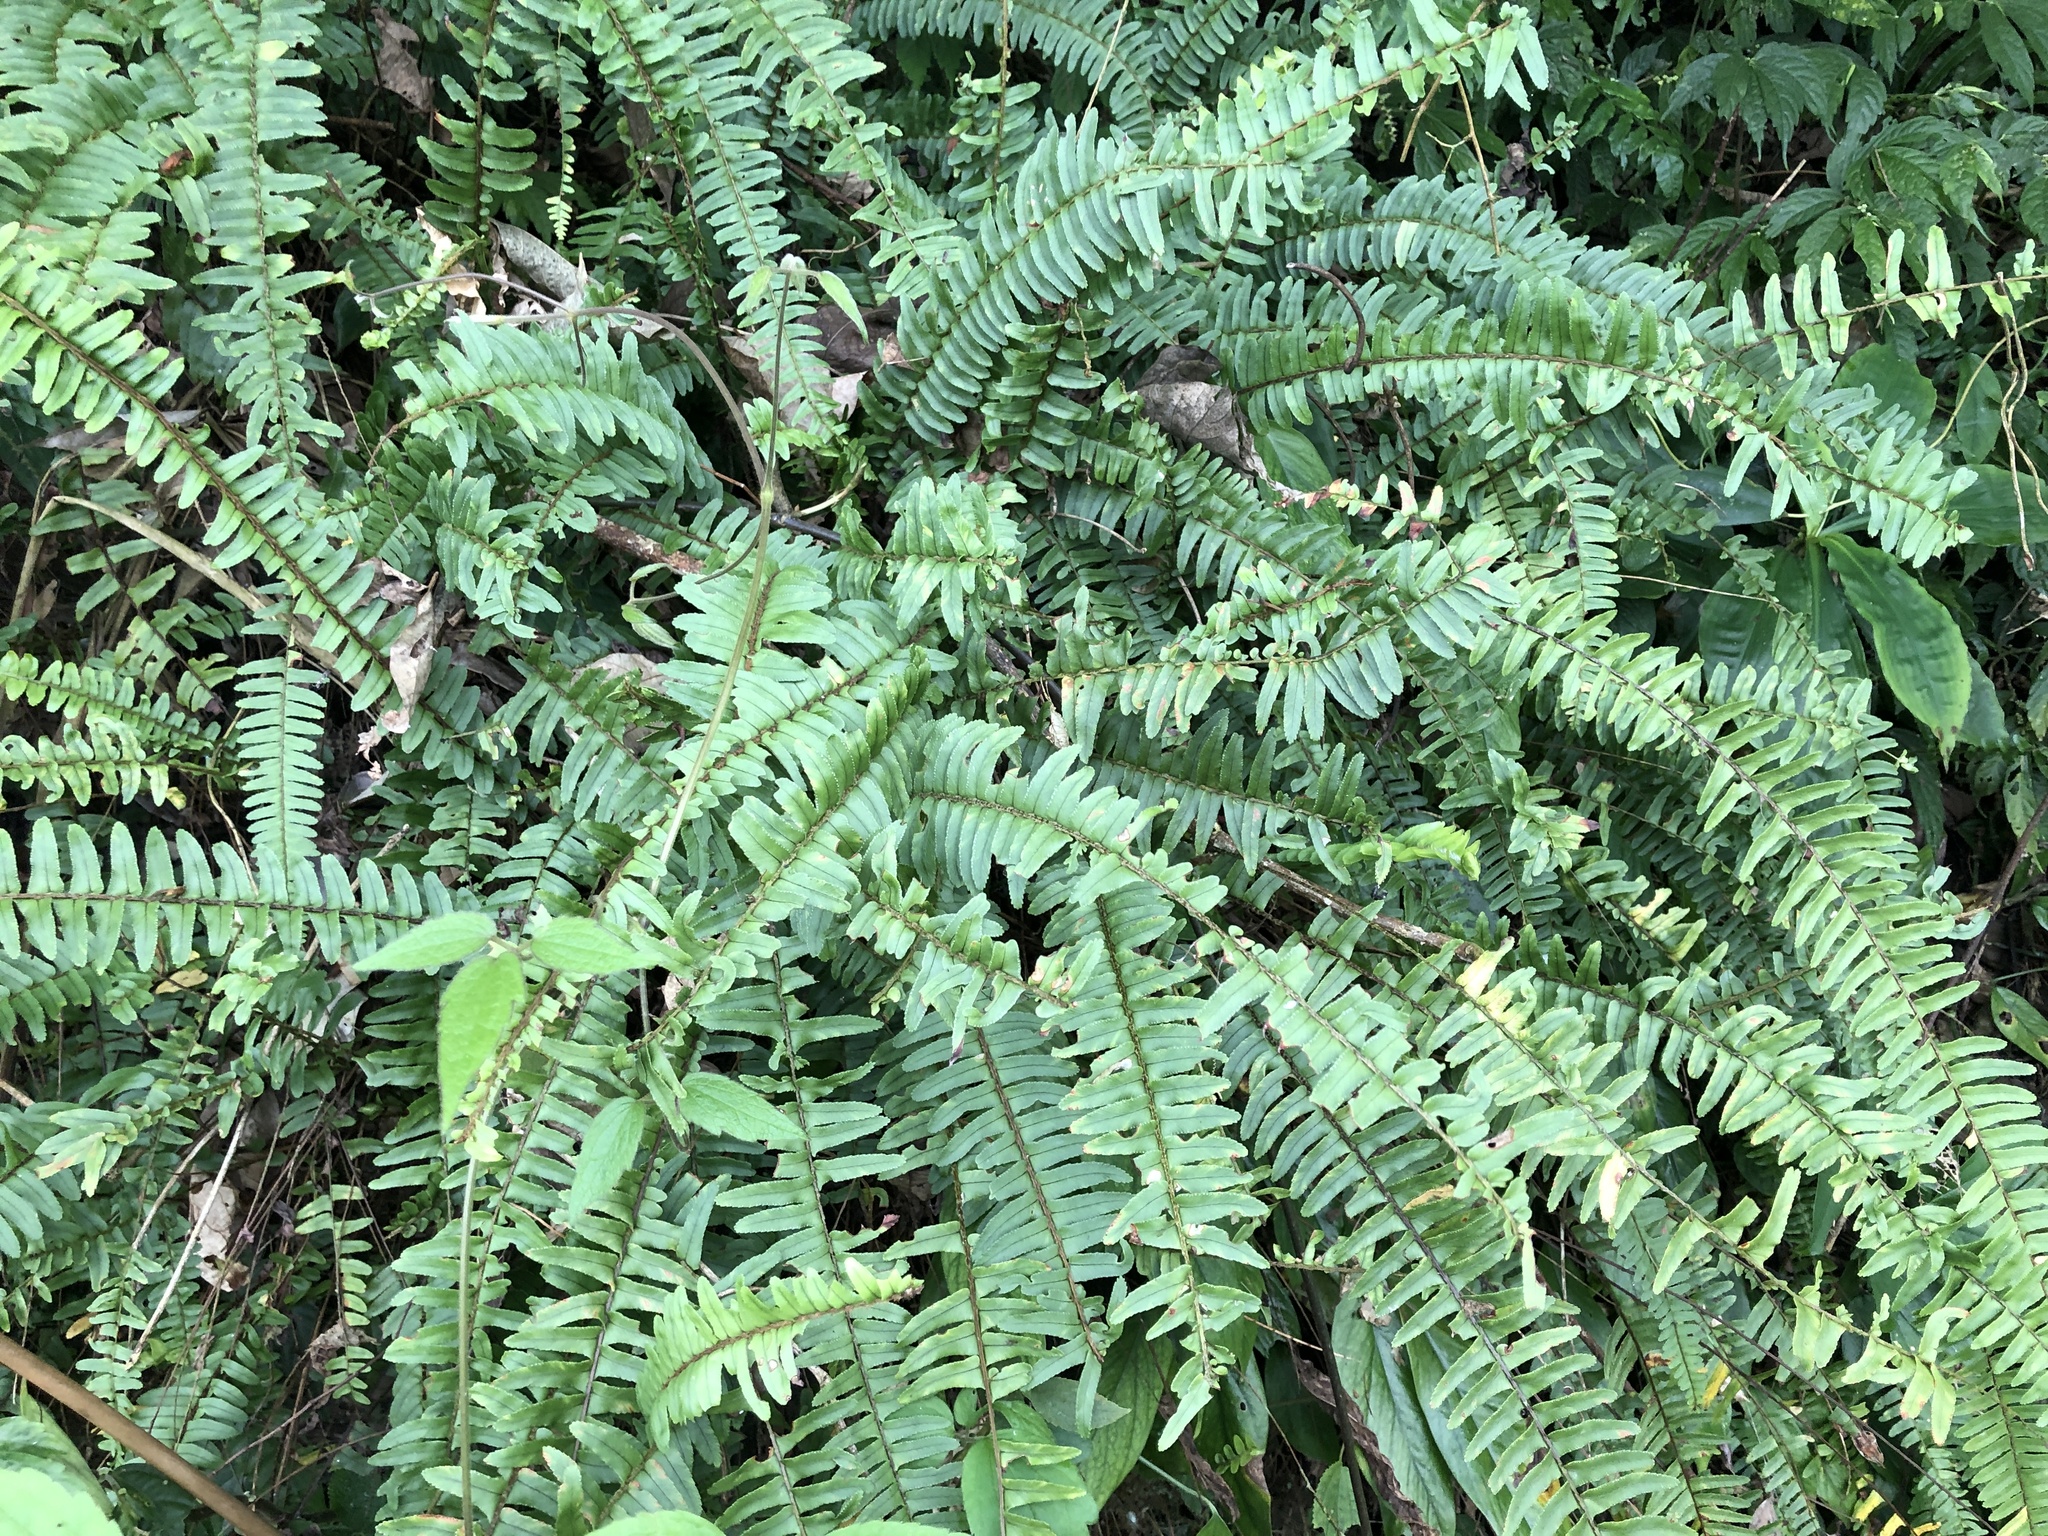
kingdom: Plantae
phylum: Tracheophyta
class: Polypodiopsida
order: Polypodiales
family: Nephrolepidaceae
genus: Nephrolepis
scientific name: Nephrolepis cordifolia
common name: Narrow swordfern
